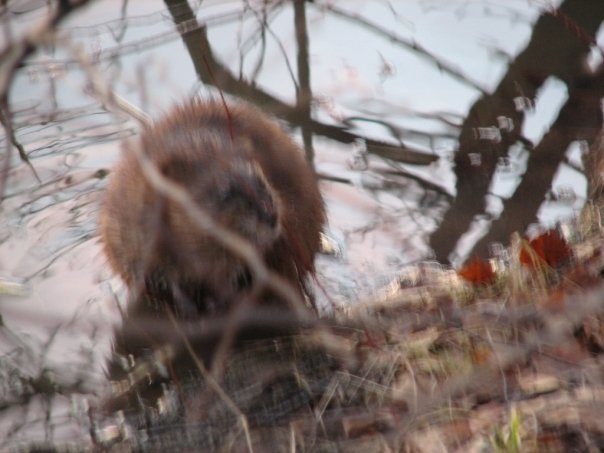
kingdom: Animalia
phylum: Chordata
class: Mammalia
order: Rodentia
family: Cricetidae
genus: Ondatra
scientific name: Ondatra zibethicus
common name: Muskrat
